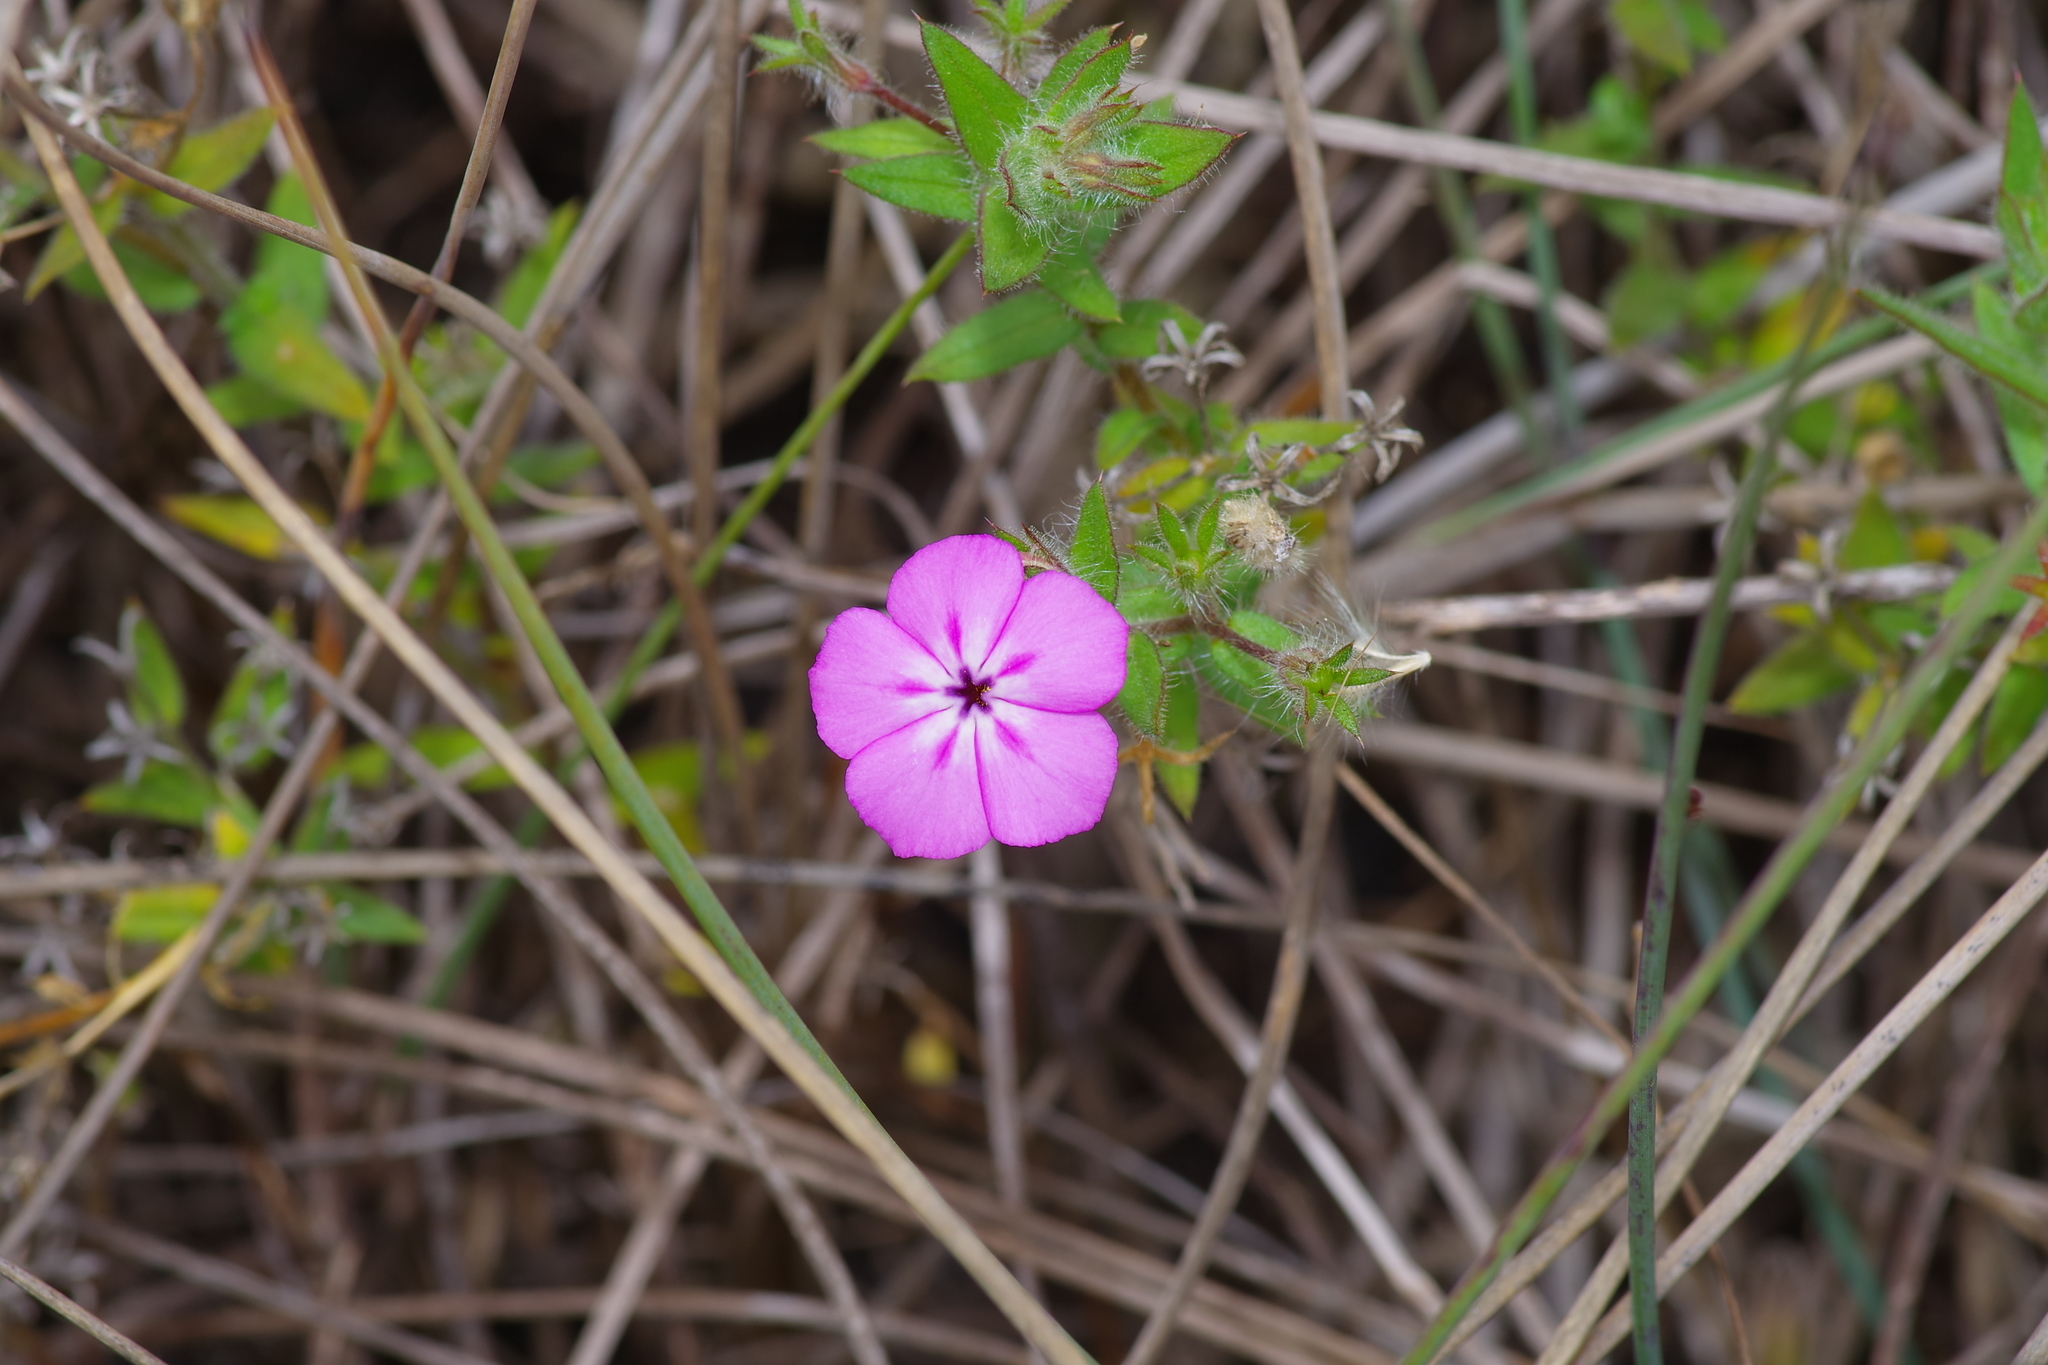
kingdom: Plantae
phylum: Tracheophyta
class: Magnoliopsida
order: Ericales
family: Polemoniaceae
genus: Phlox
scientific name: Phlox glabriflora
